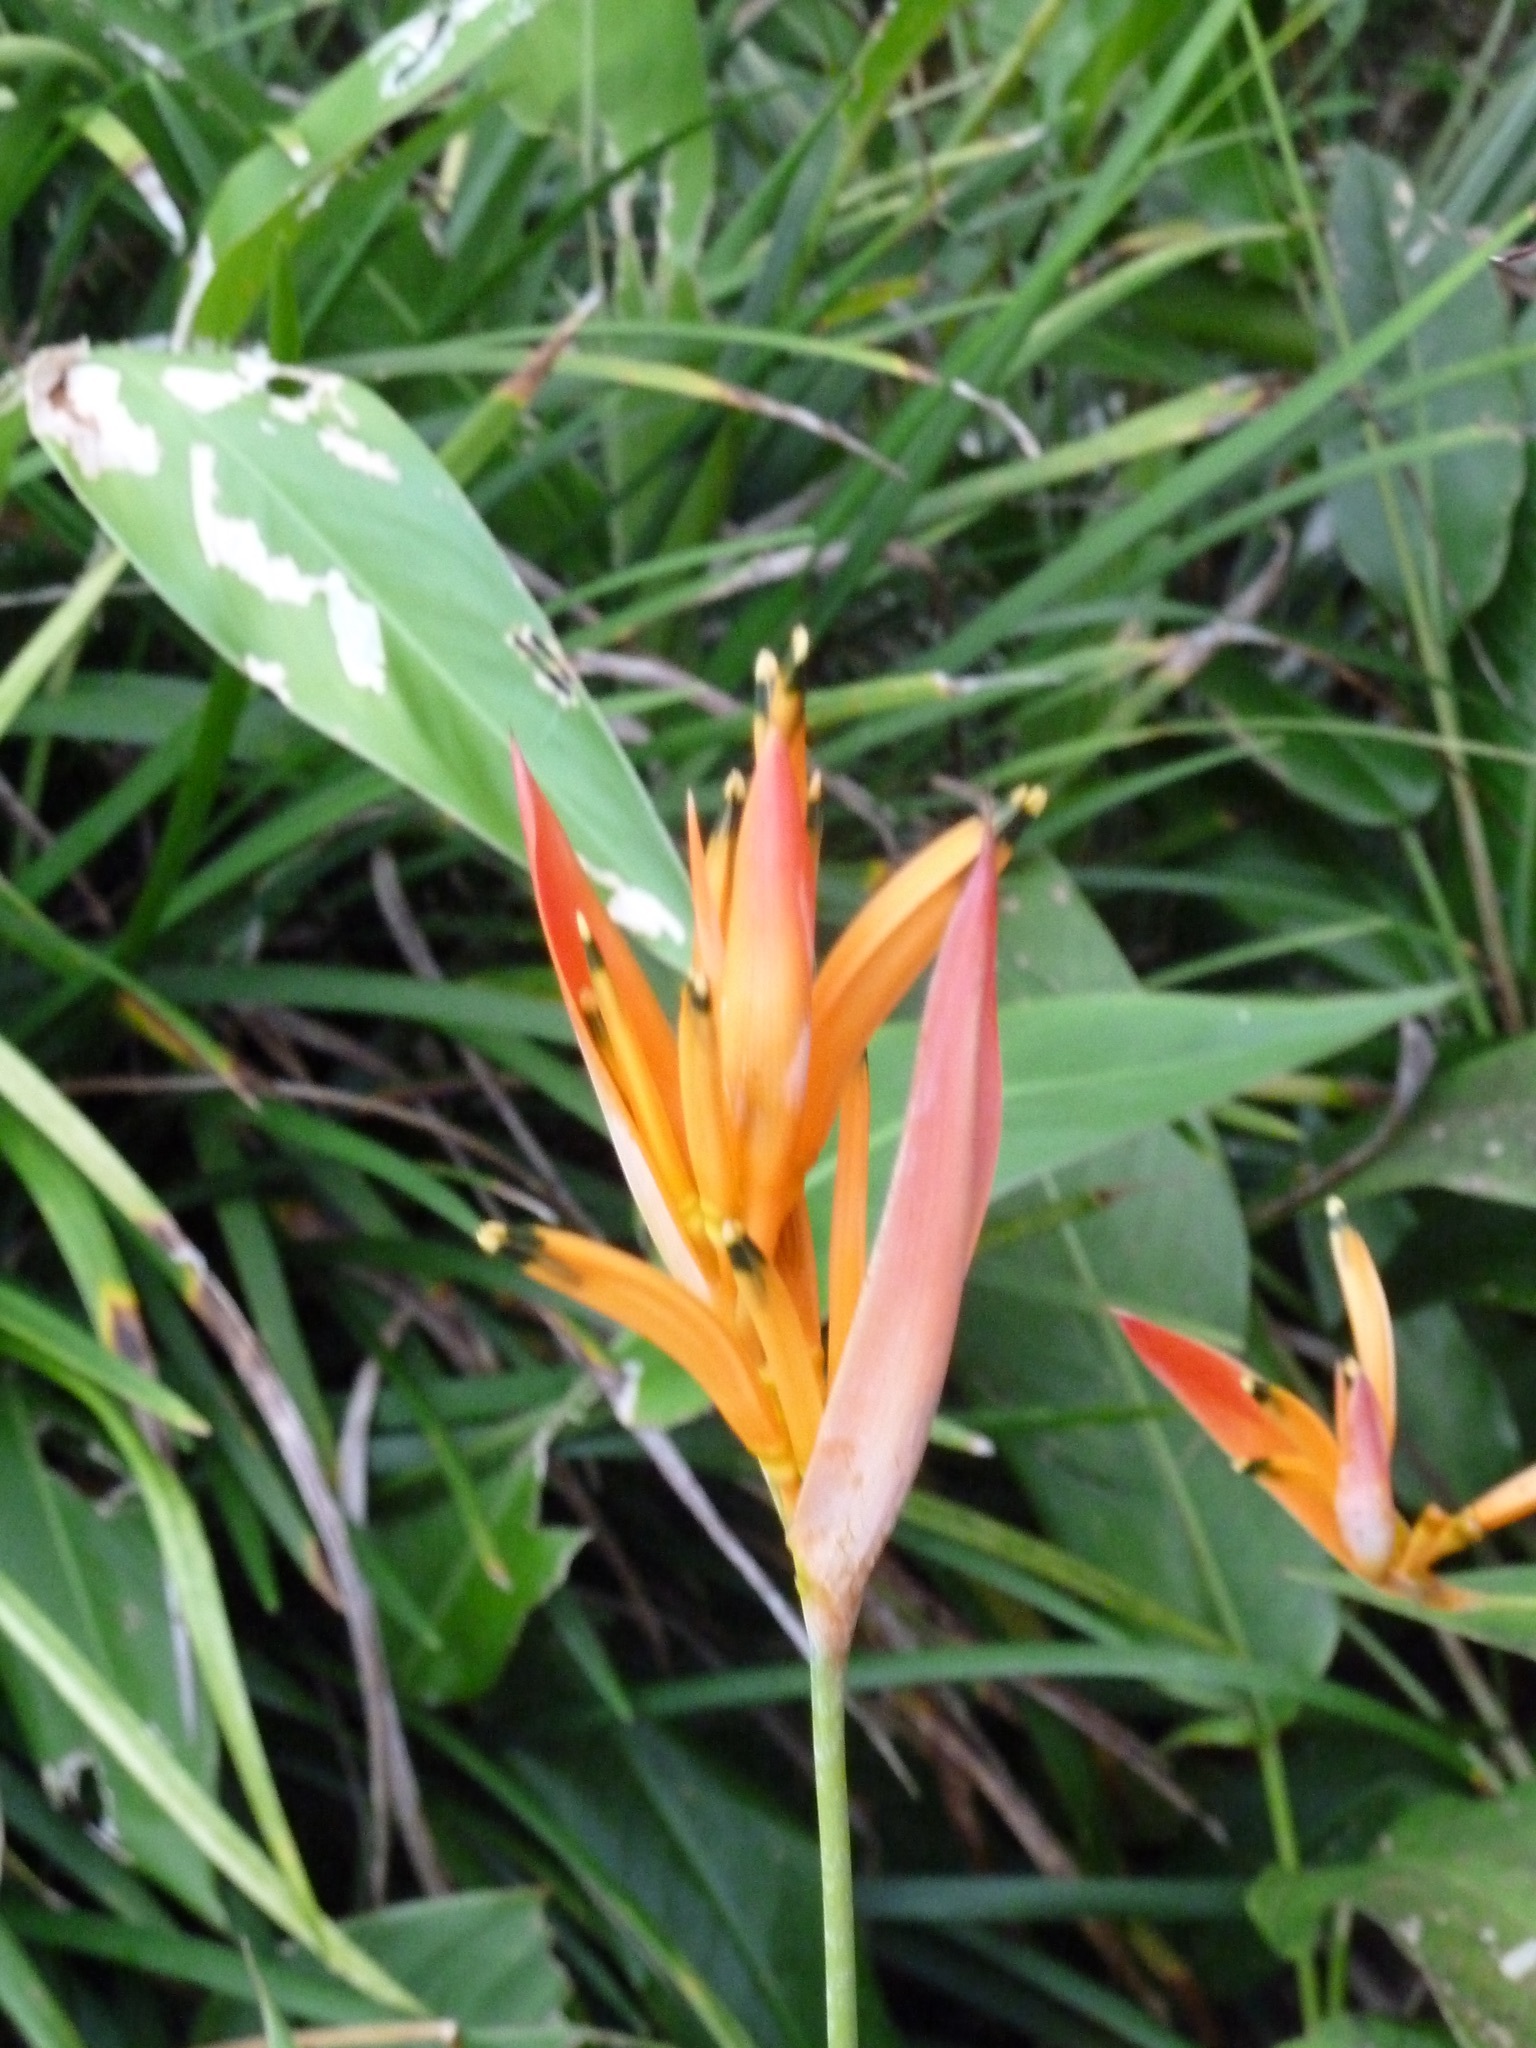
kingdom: Plantae
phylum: Tracheophyta
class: Liliopsida
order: Zingiberales
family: Heliconiaceae
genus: Heliconia
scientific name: Heliconia psittacorum
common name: Parrot's-flower
